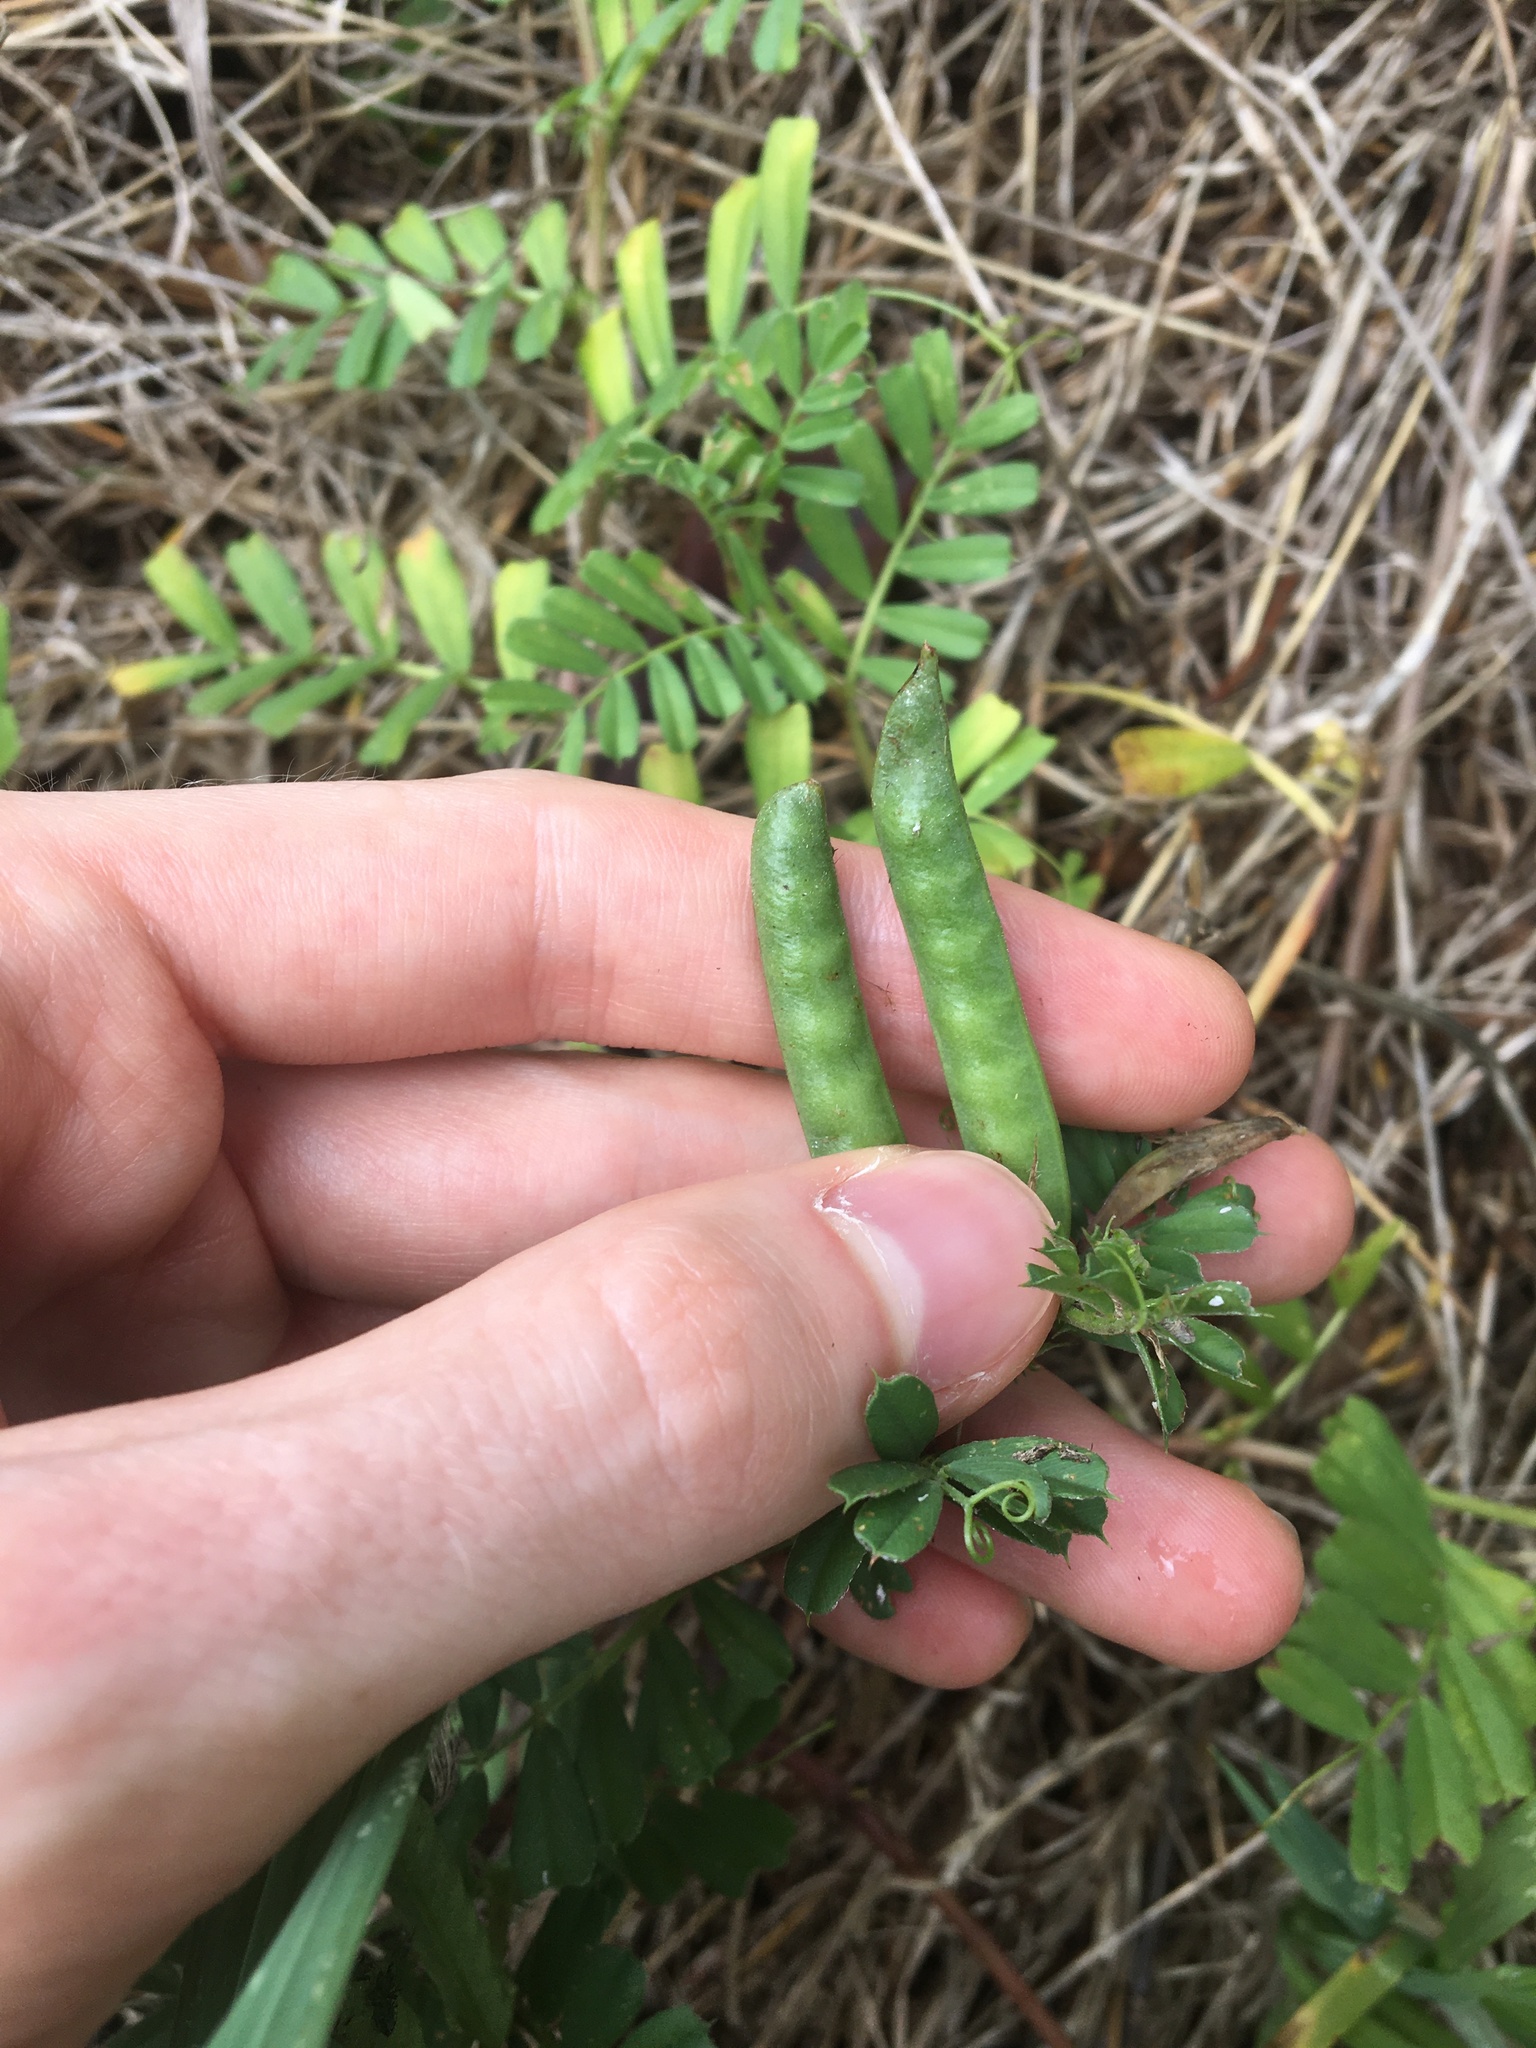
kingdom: Plantae
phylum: Tracheophyta
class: Magnoliopsida
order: Fabales
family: Fabaceae
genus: Vicia
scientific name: Vicia sativa
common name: Garden vetch
